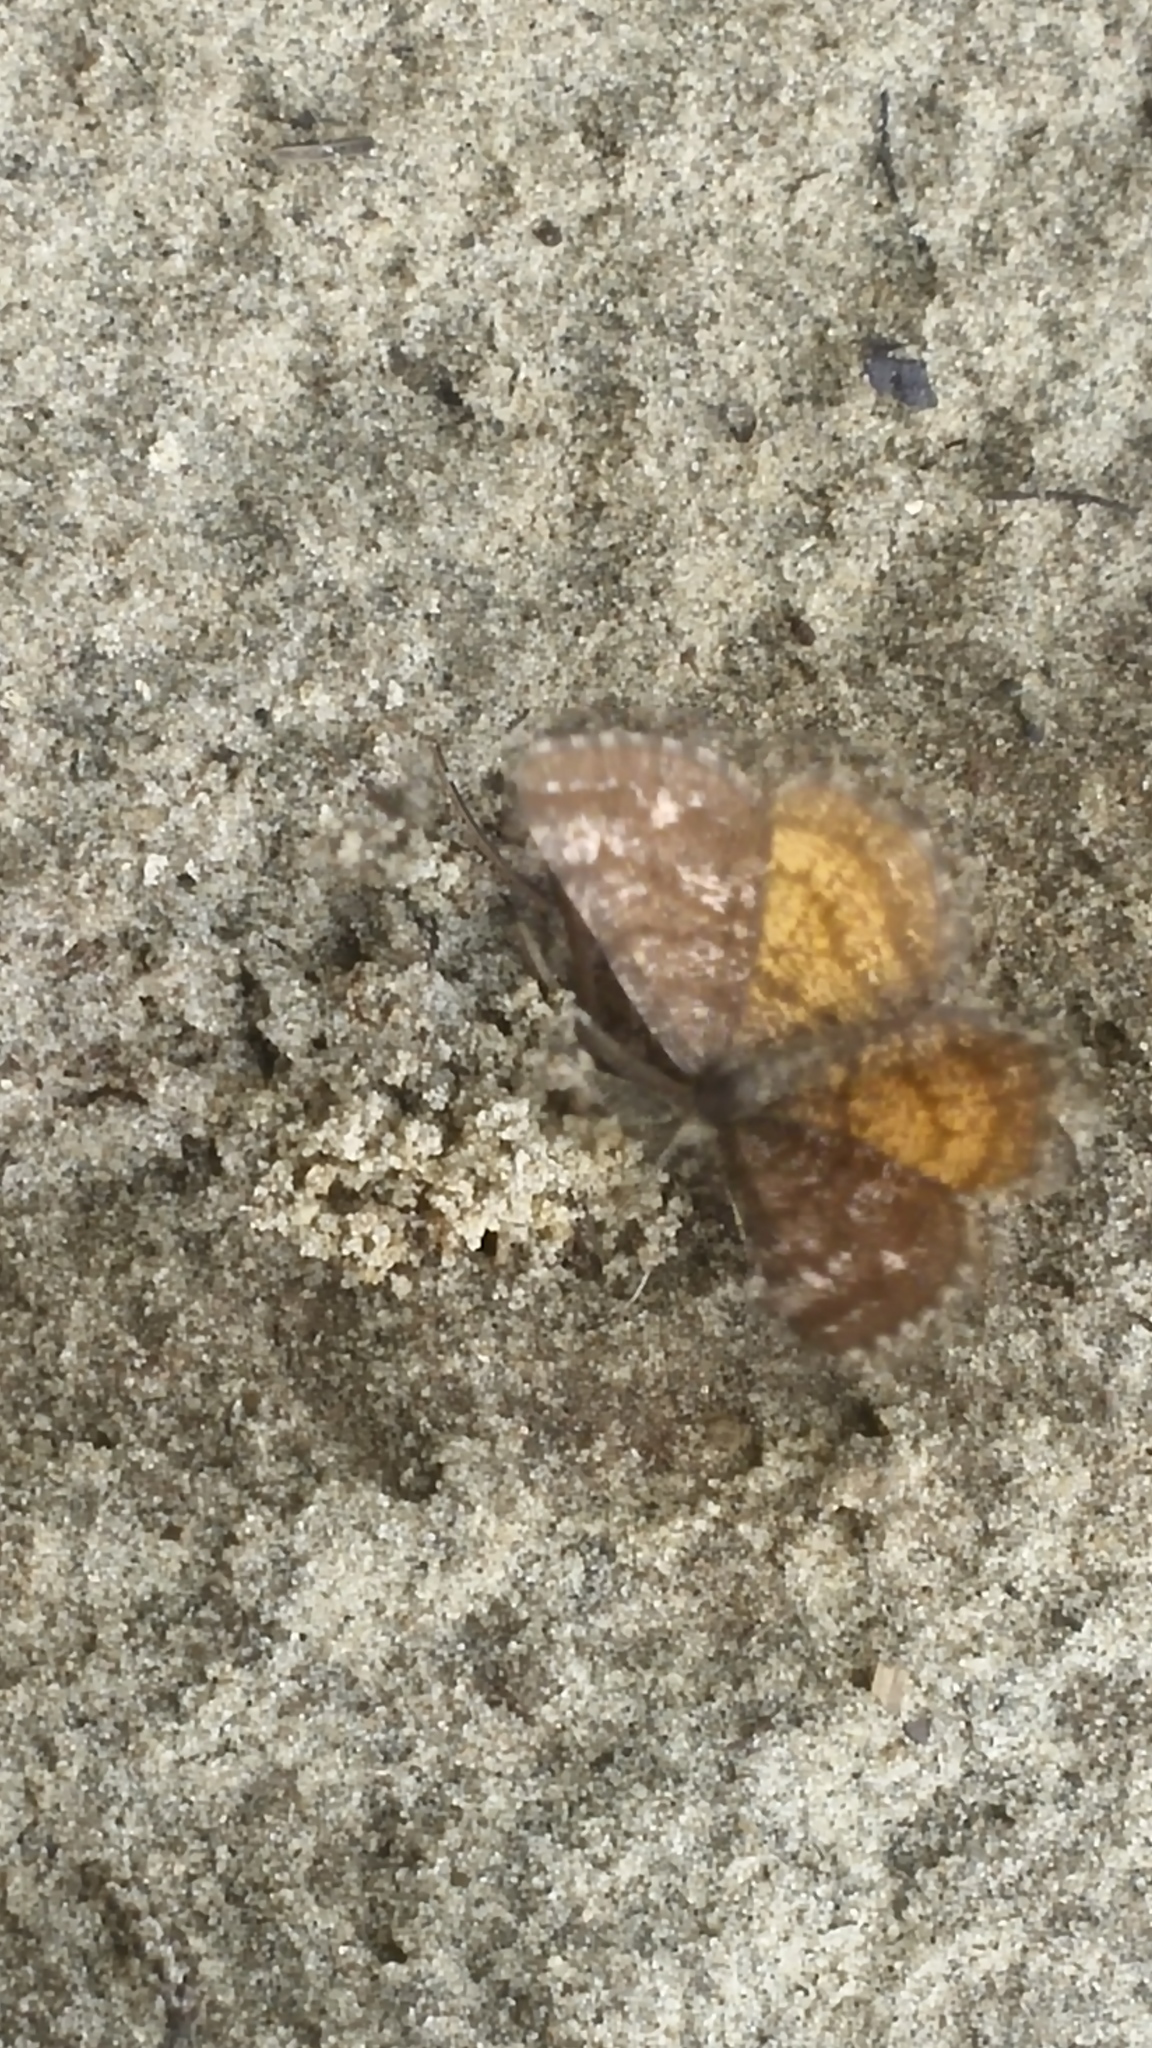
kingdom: Animalia
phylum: Arthropoda
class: Insecta
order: Lepidoptera
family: Geometridae
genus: Ematurga
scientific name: Ematurga amitaria
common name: Cranberry spanworm moth
